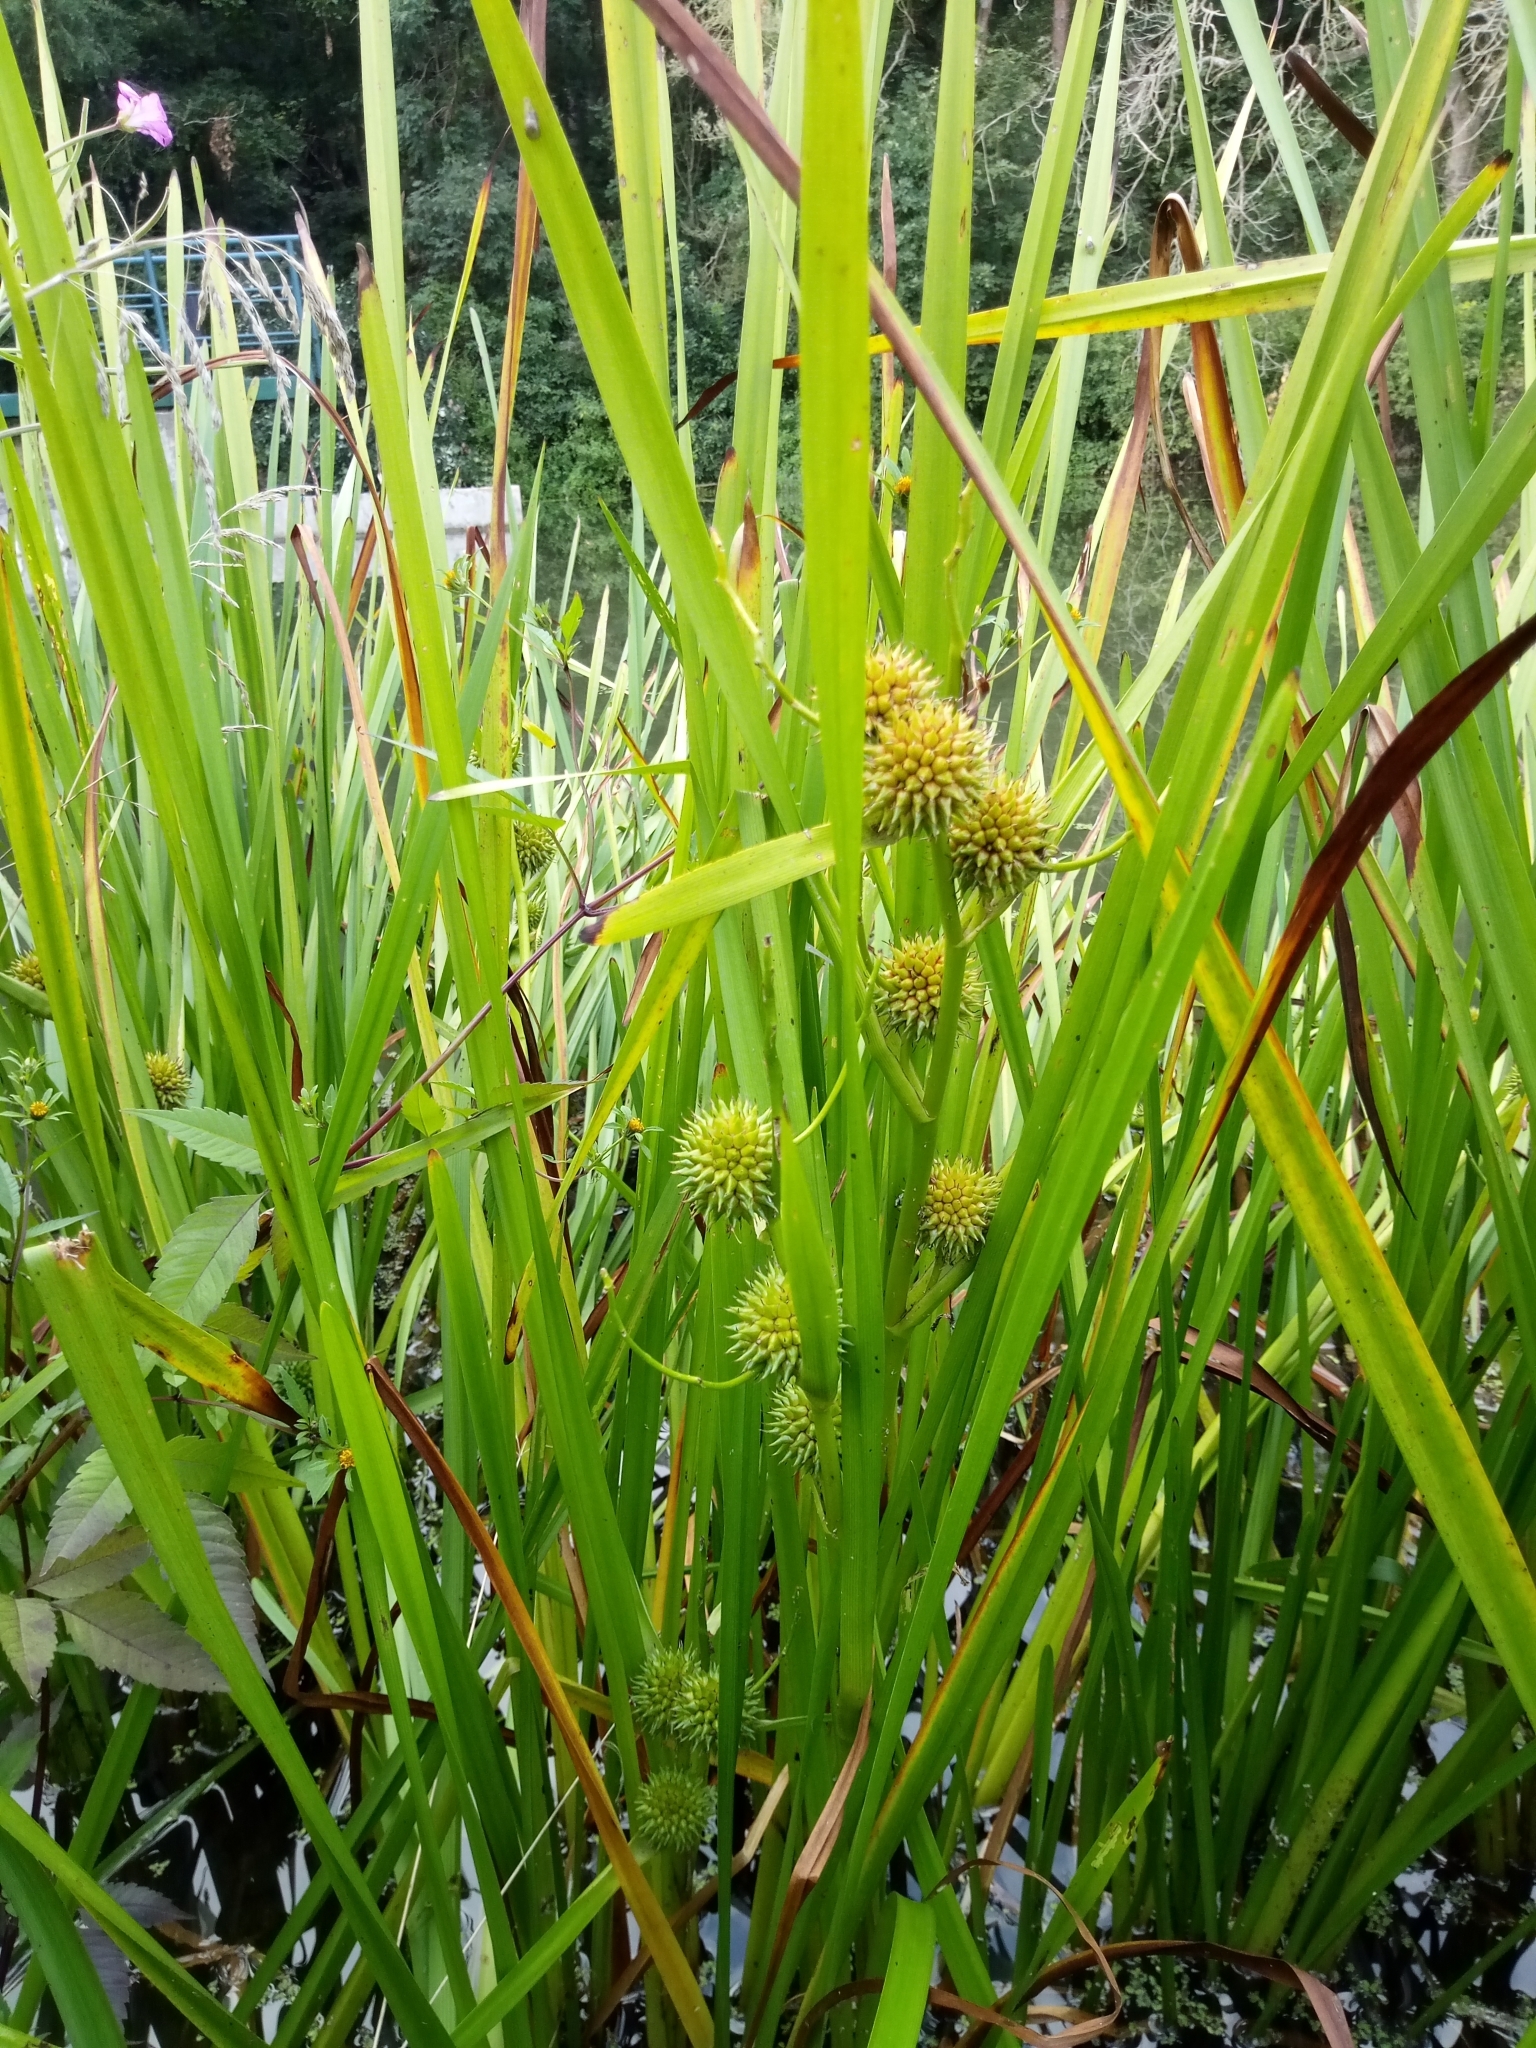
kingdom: Plantae
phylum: Tracheophyta
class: Liliopsida
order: Poales
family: Typhaceae
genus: Sparganium
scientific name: Sparganium erectum
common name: Branched bur-reed
